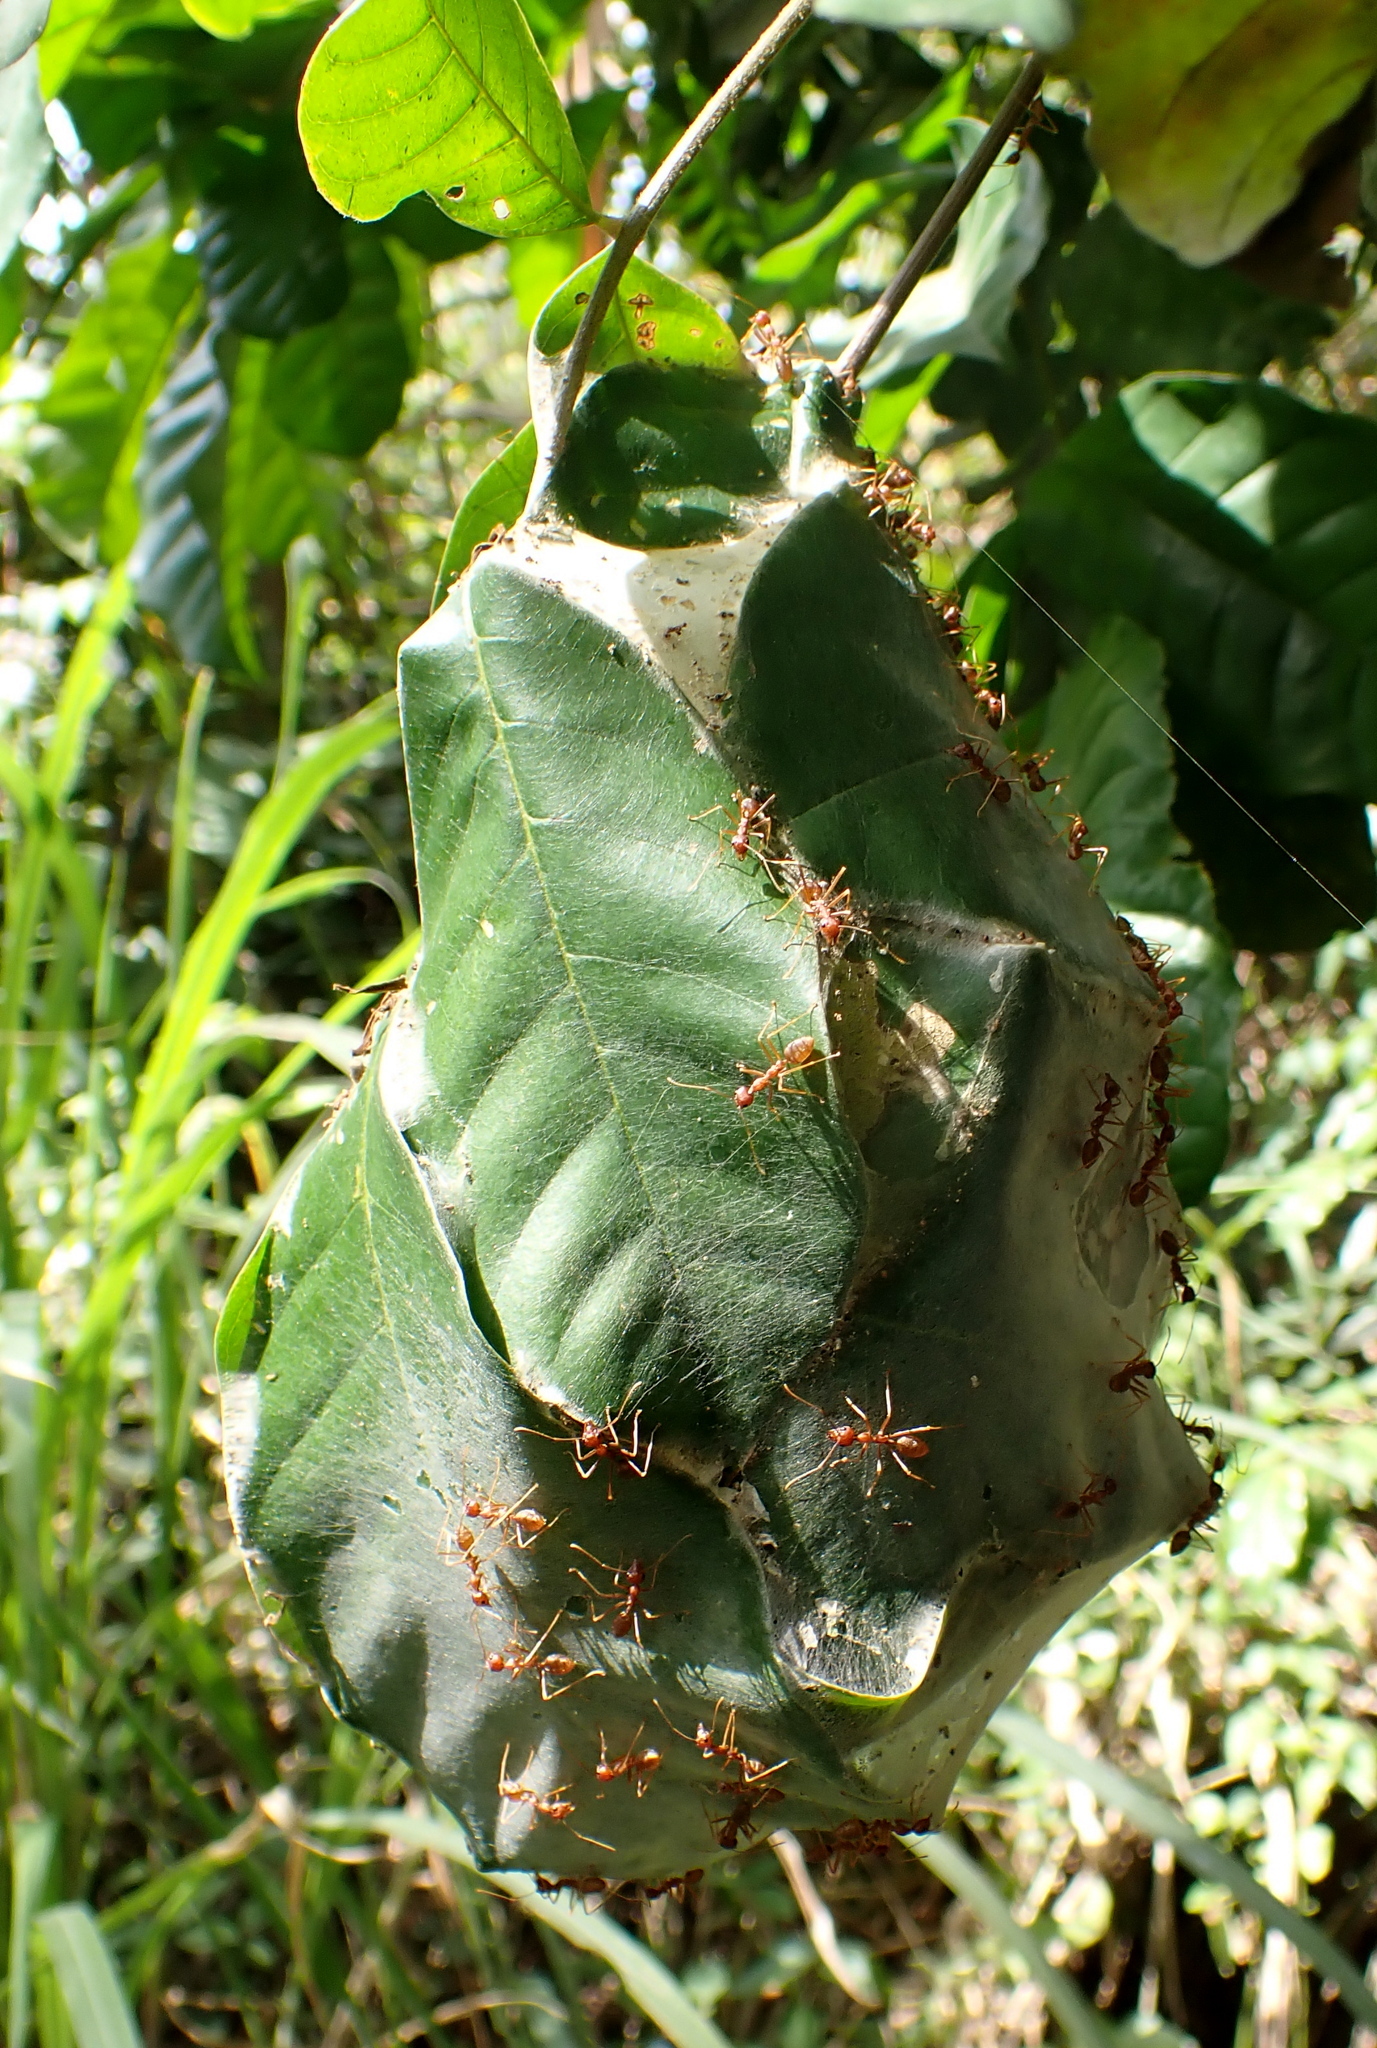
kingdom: Animalia
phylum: Arthropoda
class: Insecta
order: Hymenoptera
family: Formicidae
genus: Oecophylla
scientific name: Oecophylla longinoda
